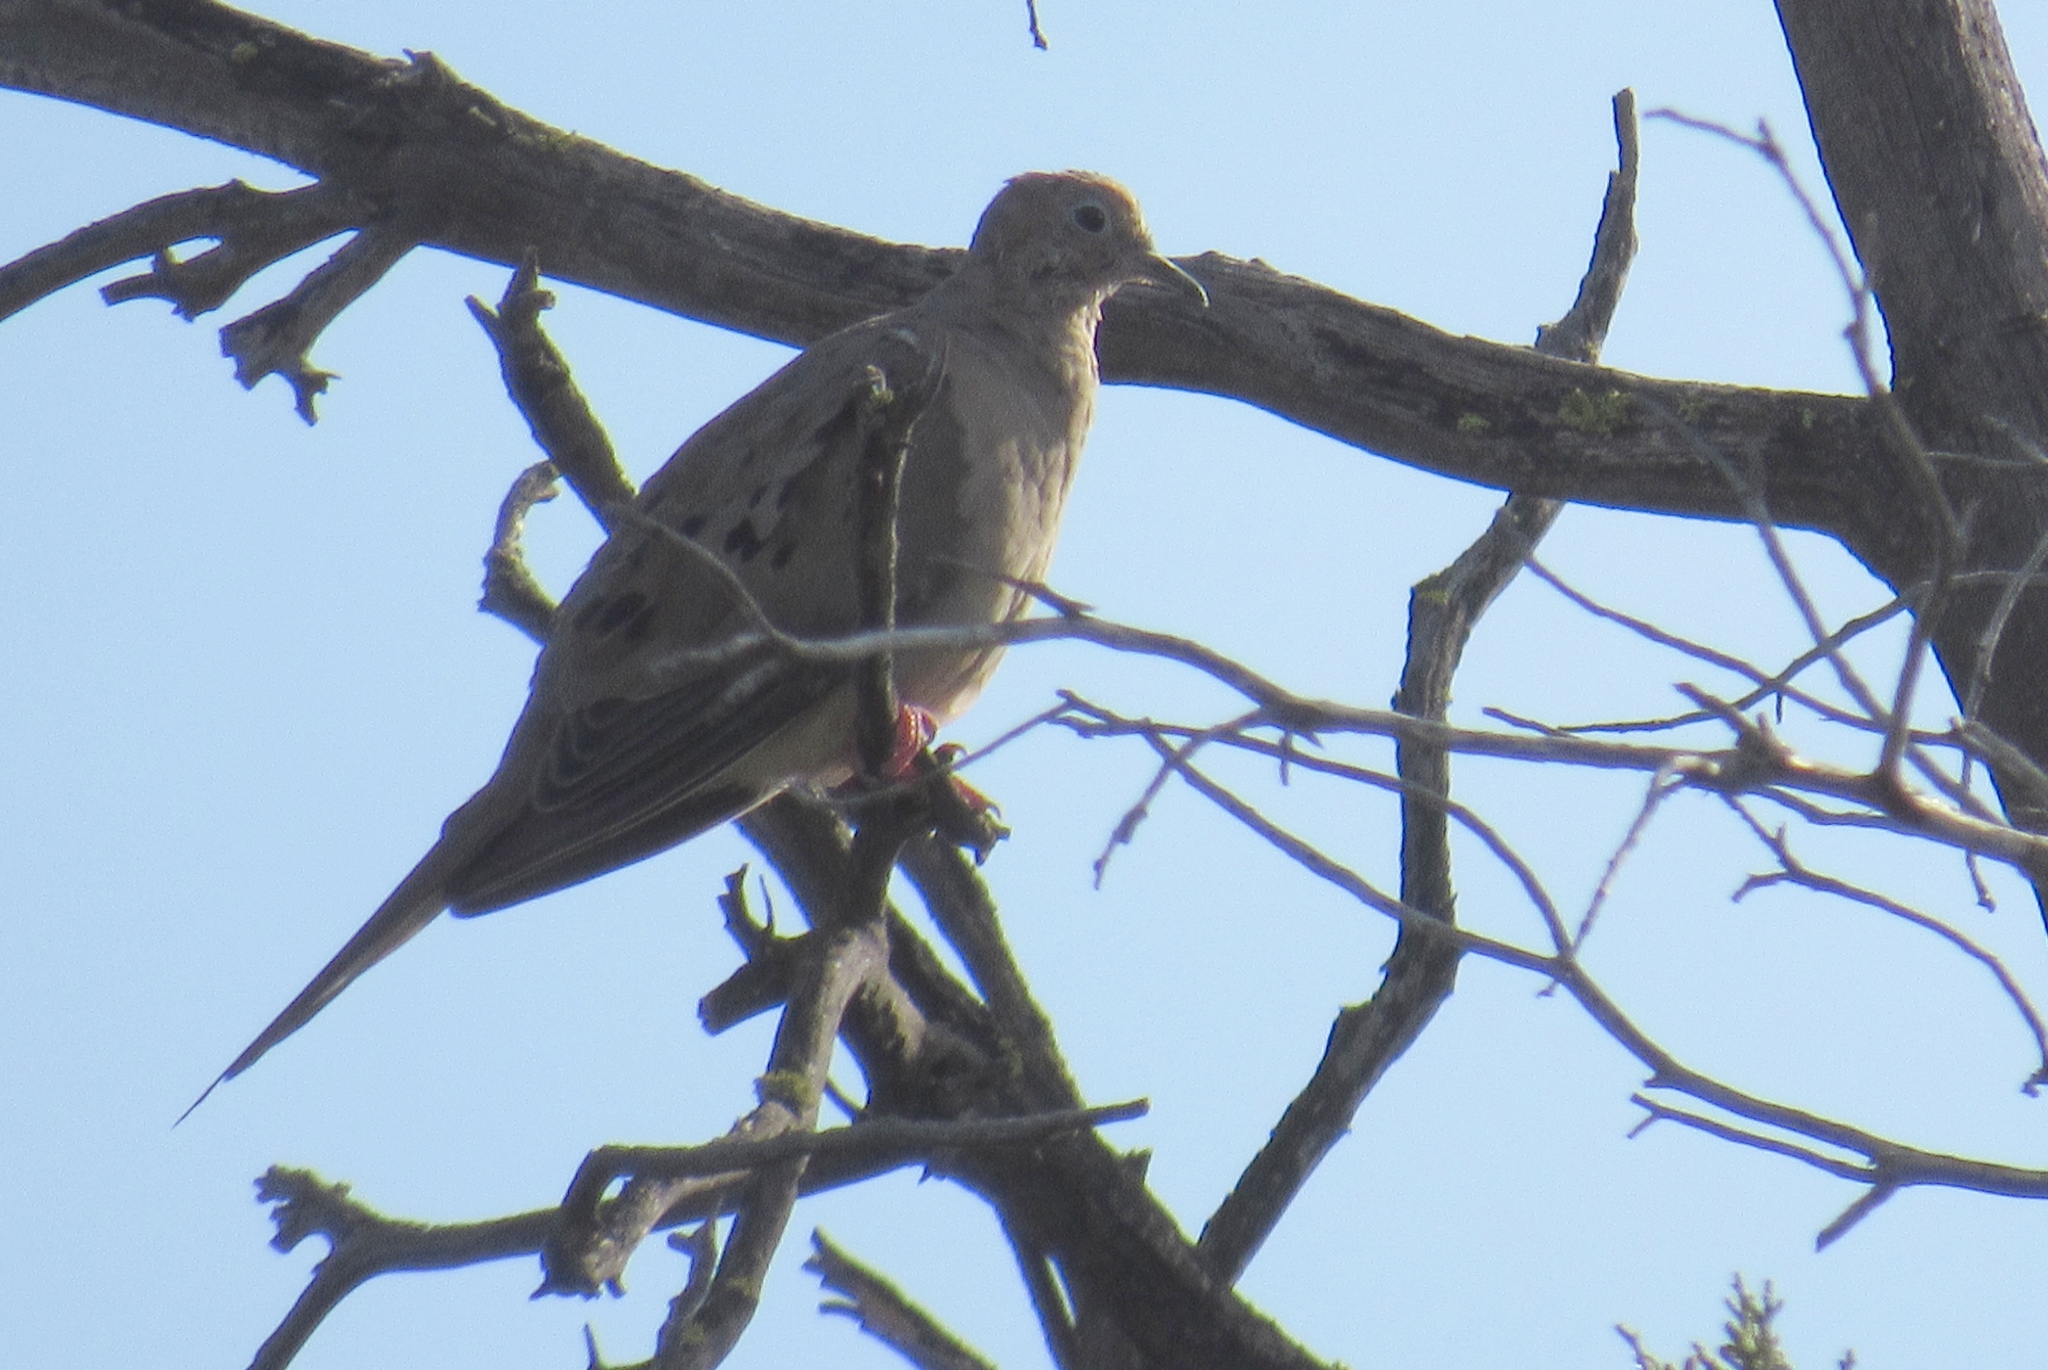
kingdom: Animalia
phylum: Chordata
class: Aves
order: Columbiformes
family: Columbidae
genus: Zenaida
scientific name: Zenaida macroura
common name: Mourning dove
